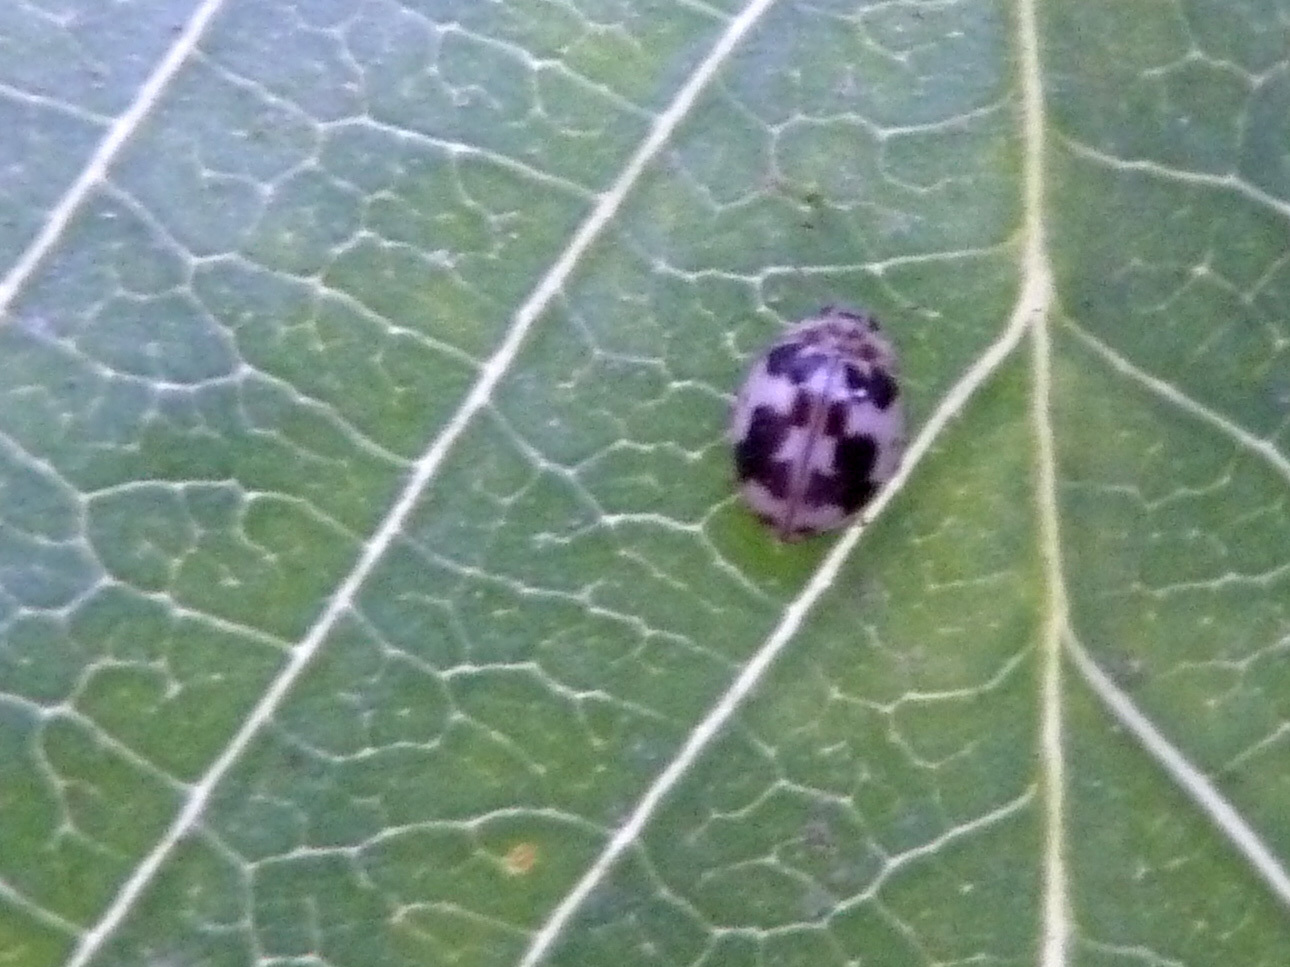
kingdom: Animalia
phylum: Arthropoda
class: Insecta
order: Coleoptera
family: Coccinellidae
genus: Psyllobora
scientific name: Psyllobora borealis
